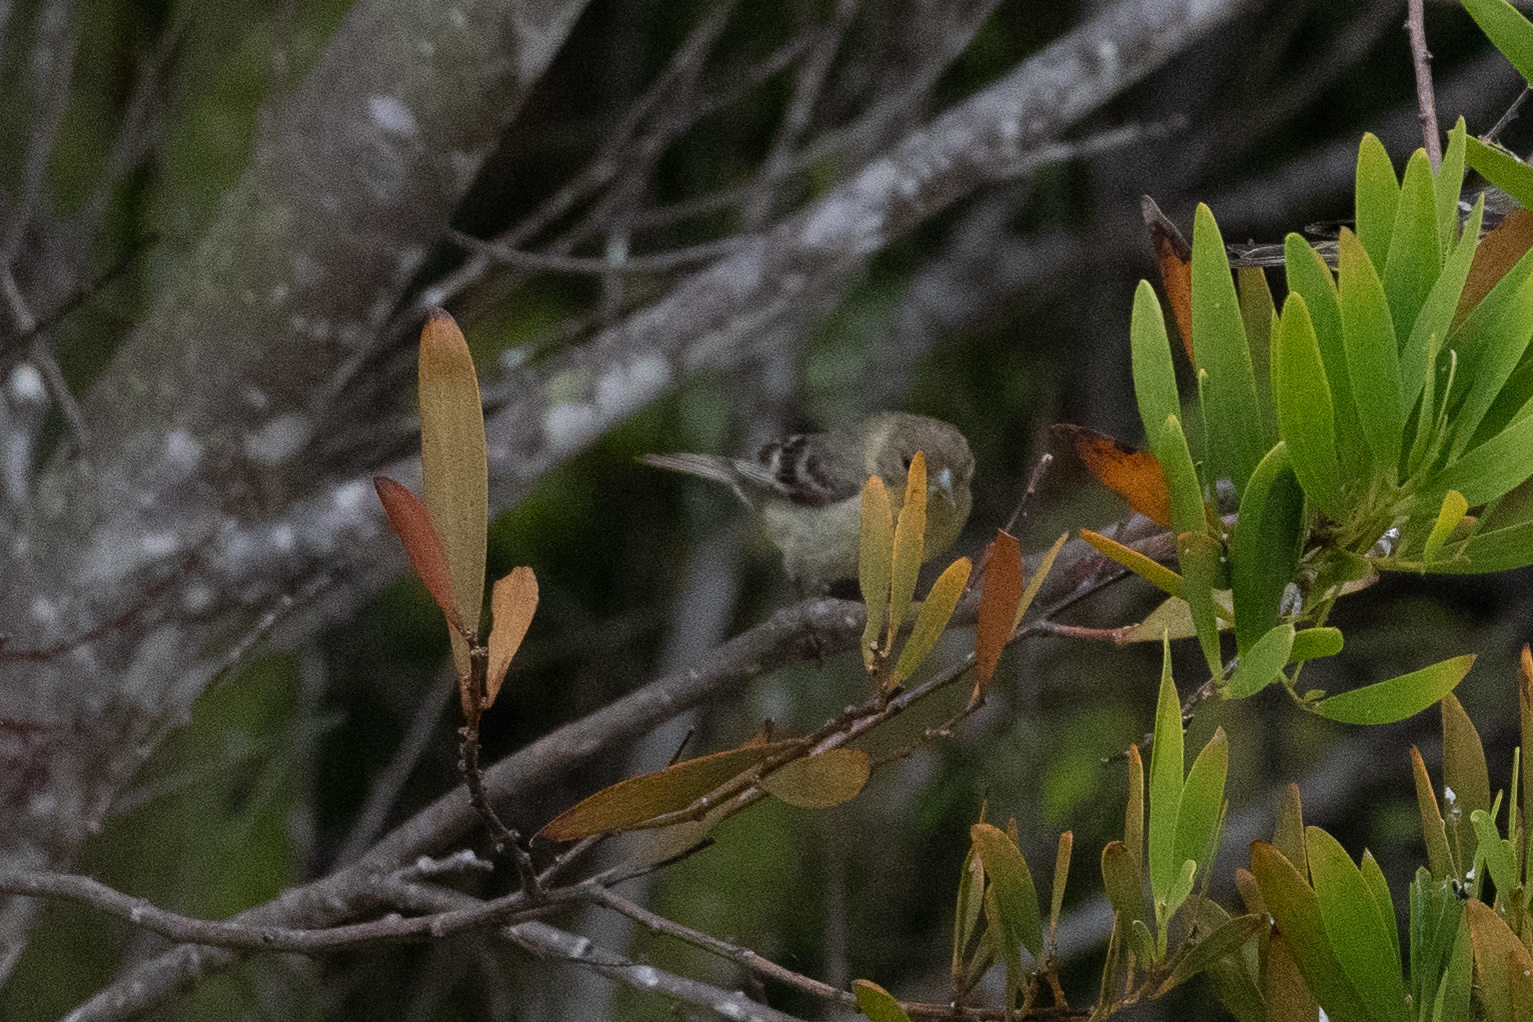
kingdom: Animalia
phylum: Chordata
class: Aves
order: Passeriformes
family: Fringillidae
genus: Spinus
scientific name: Spinus psaltria
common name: Lesser goldfinch
